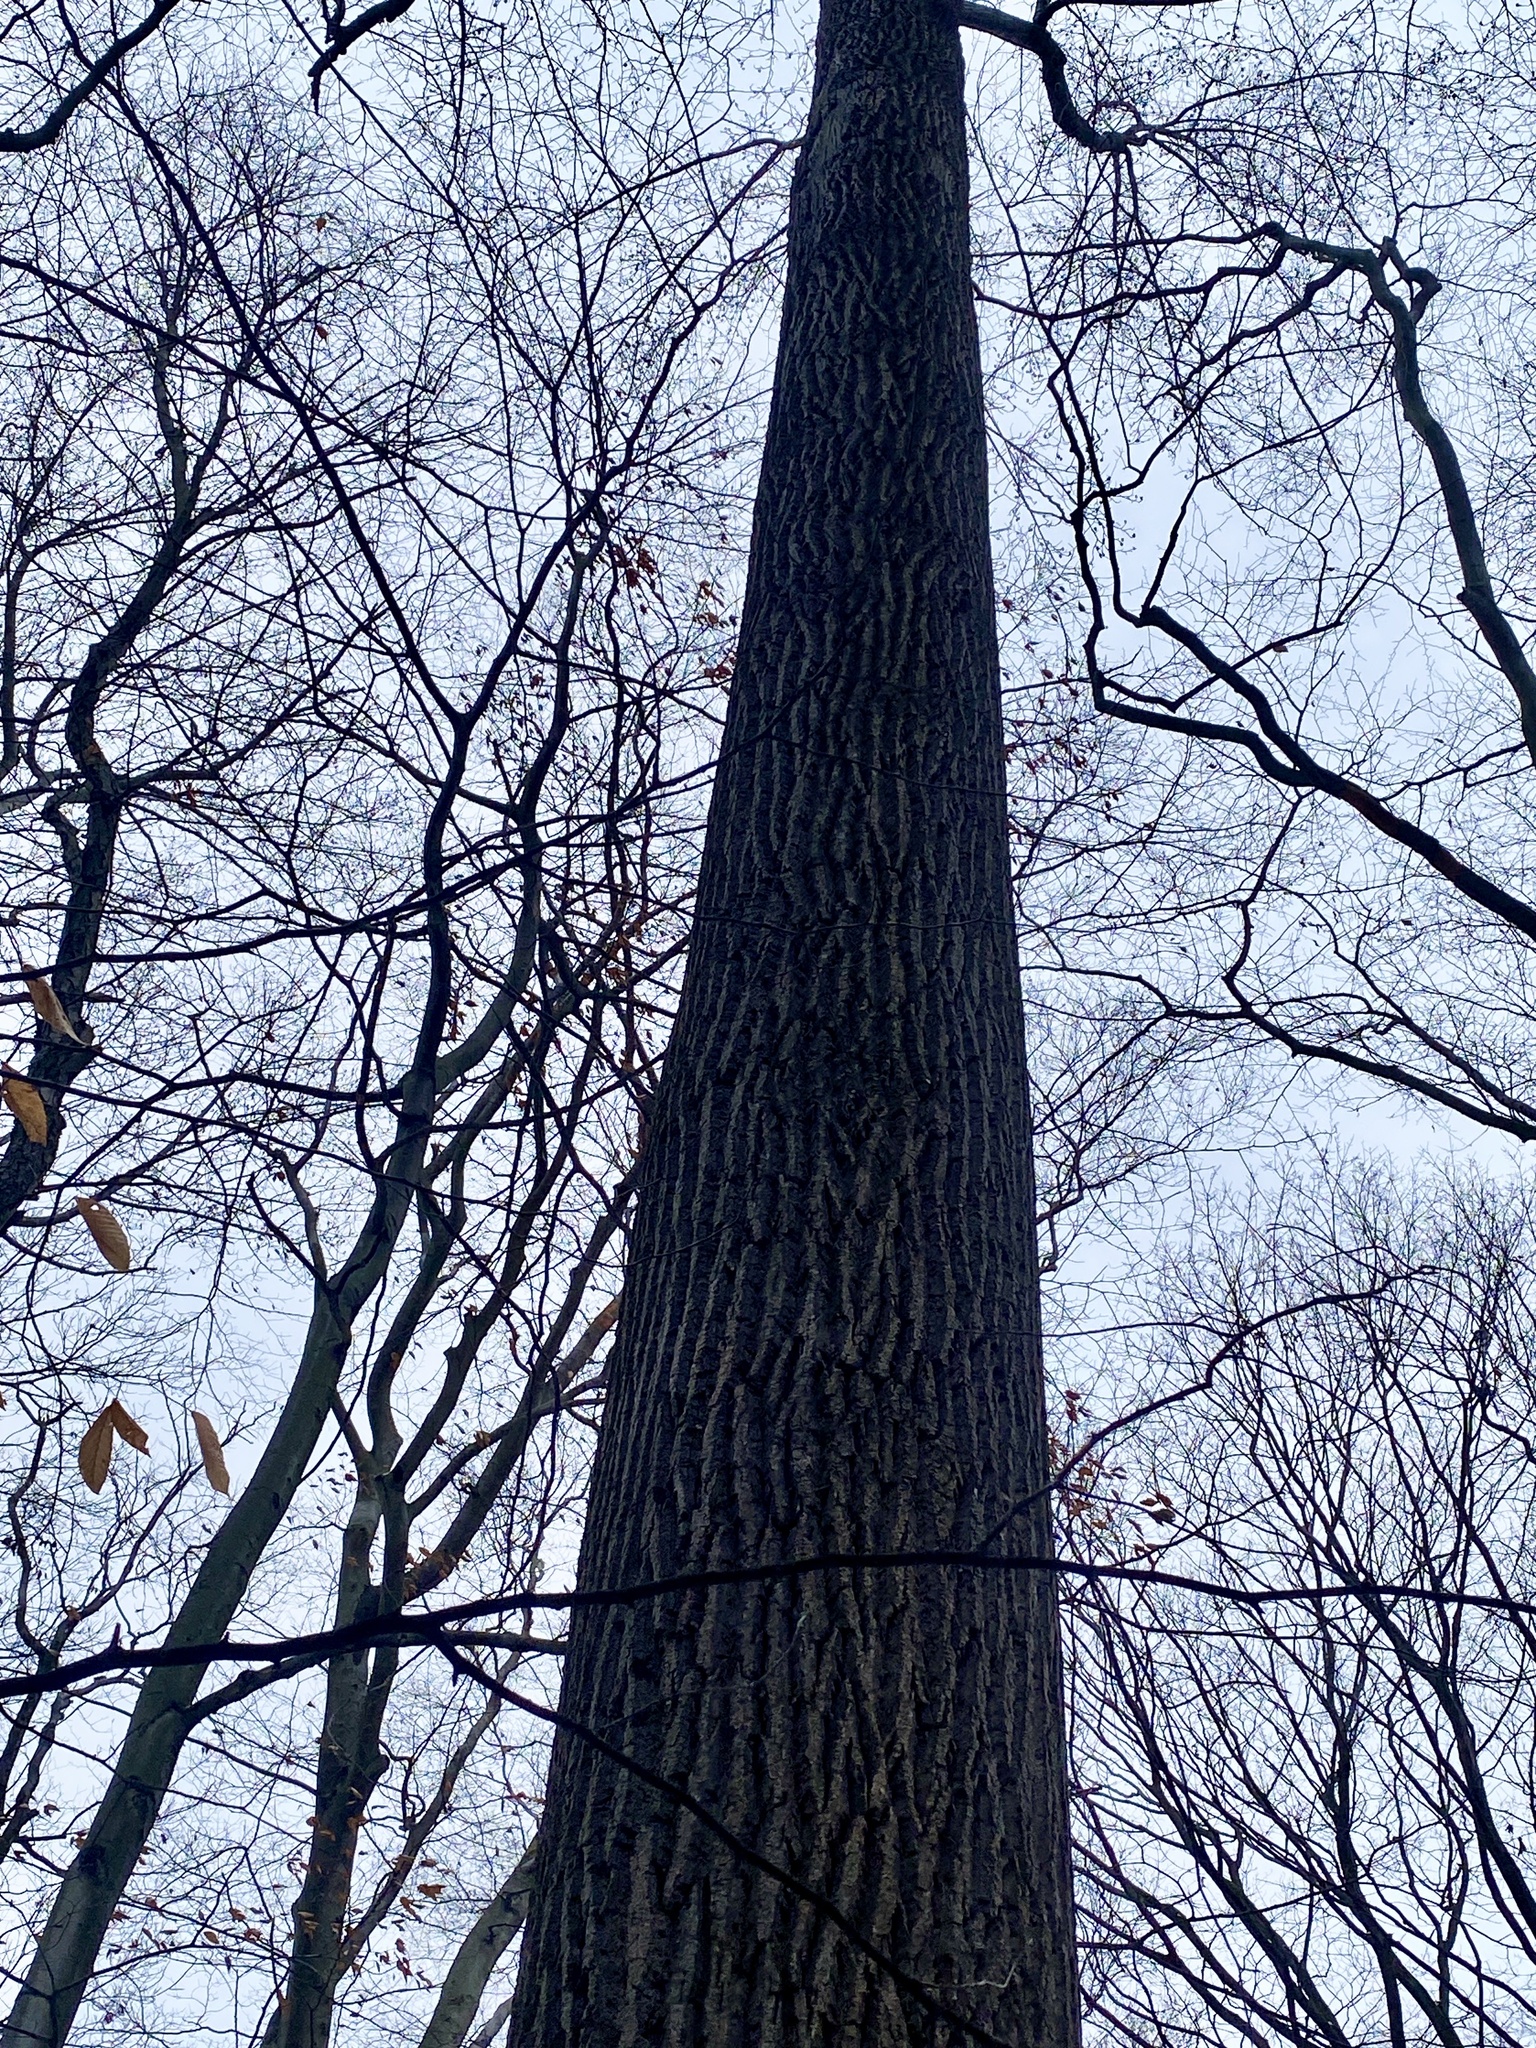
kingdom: Plantae
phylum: Tracheophyta
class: Magnoliopsida
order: Magnoliales
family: Magnoliaceae
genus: Liriodendron
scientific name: Liriodendron tulipifera
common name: Tulip tree
